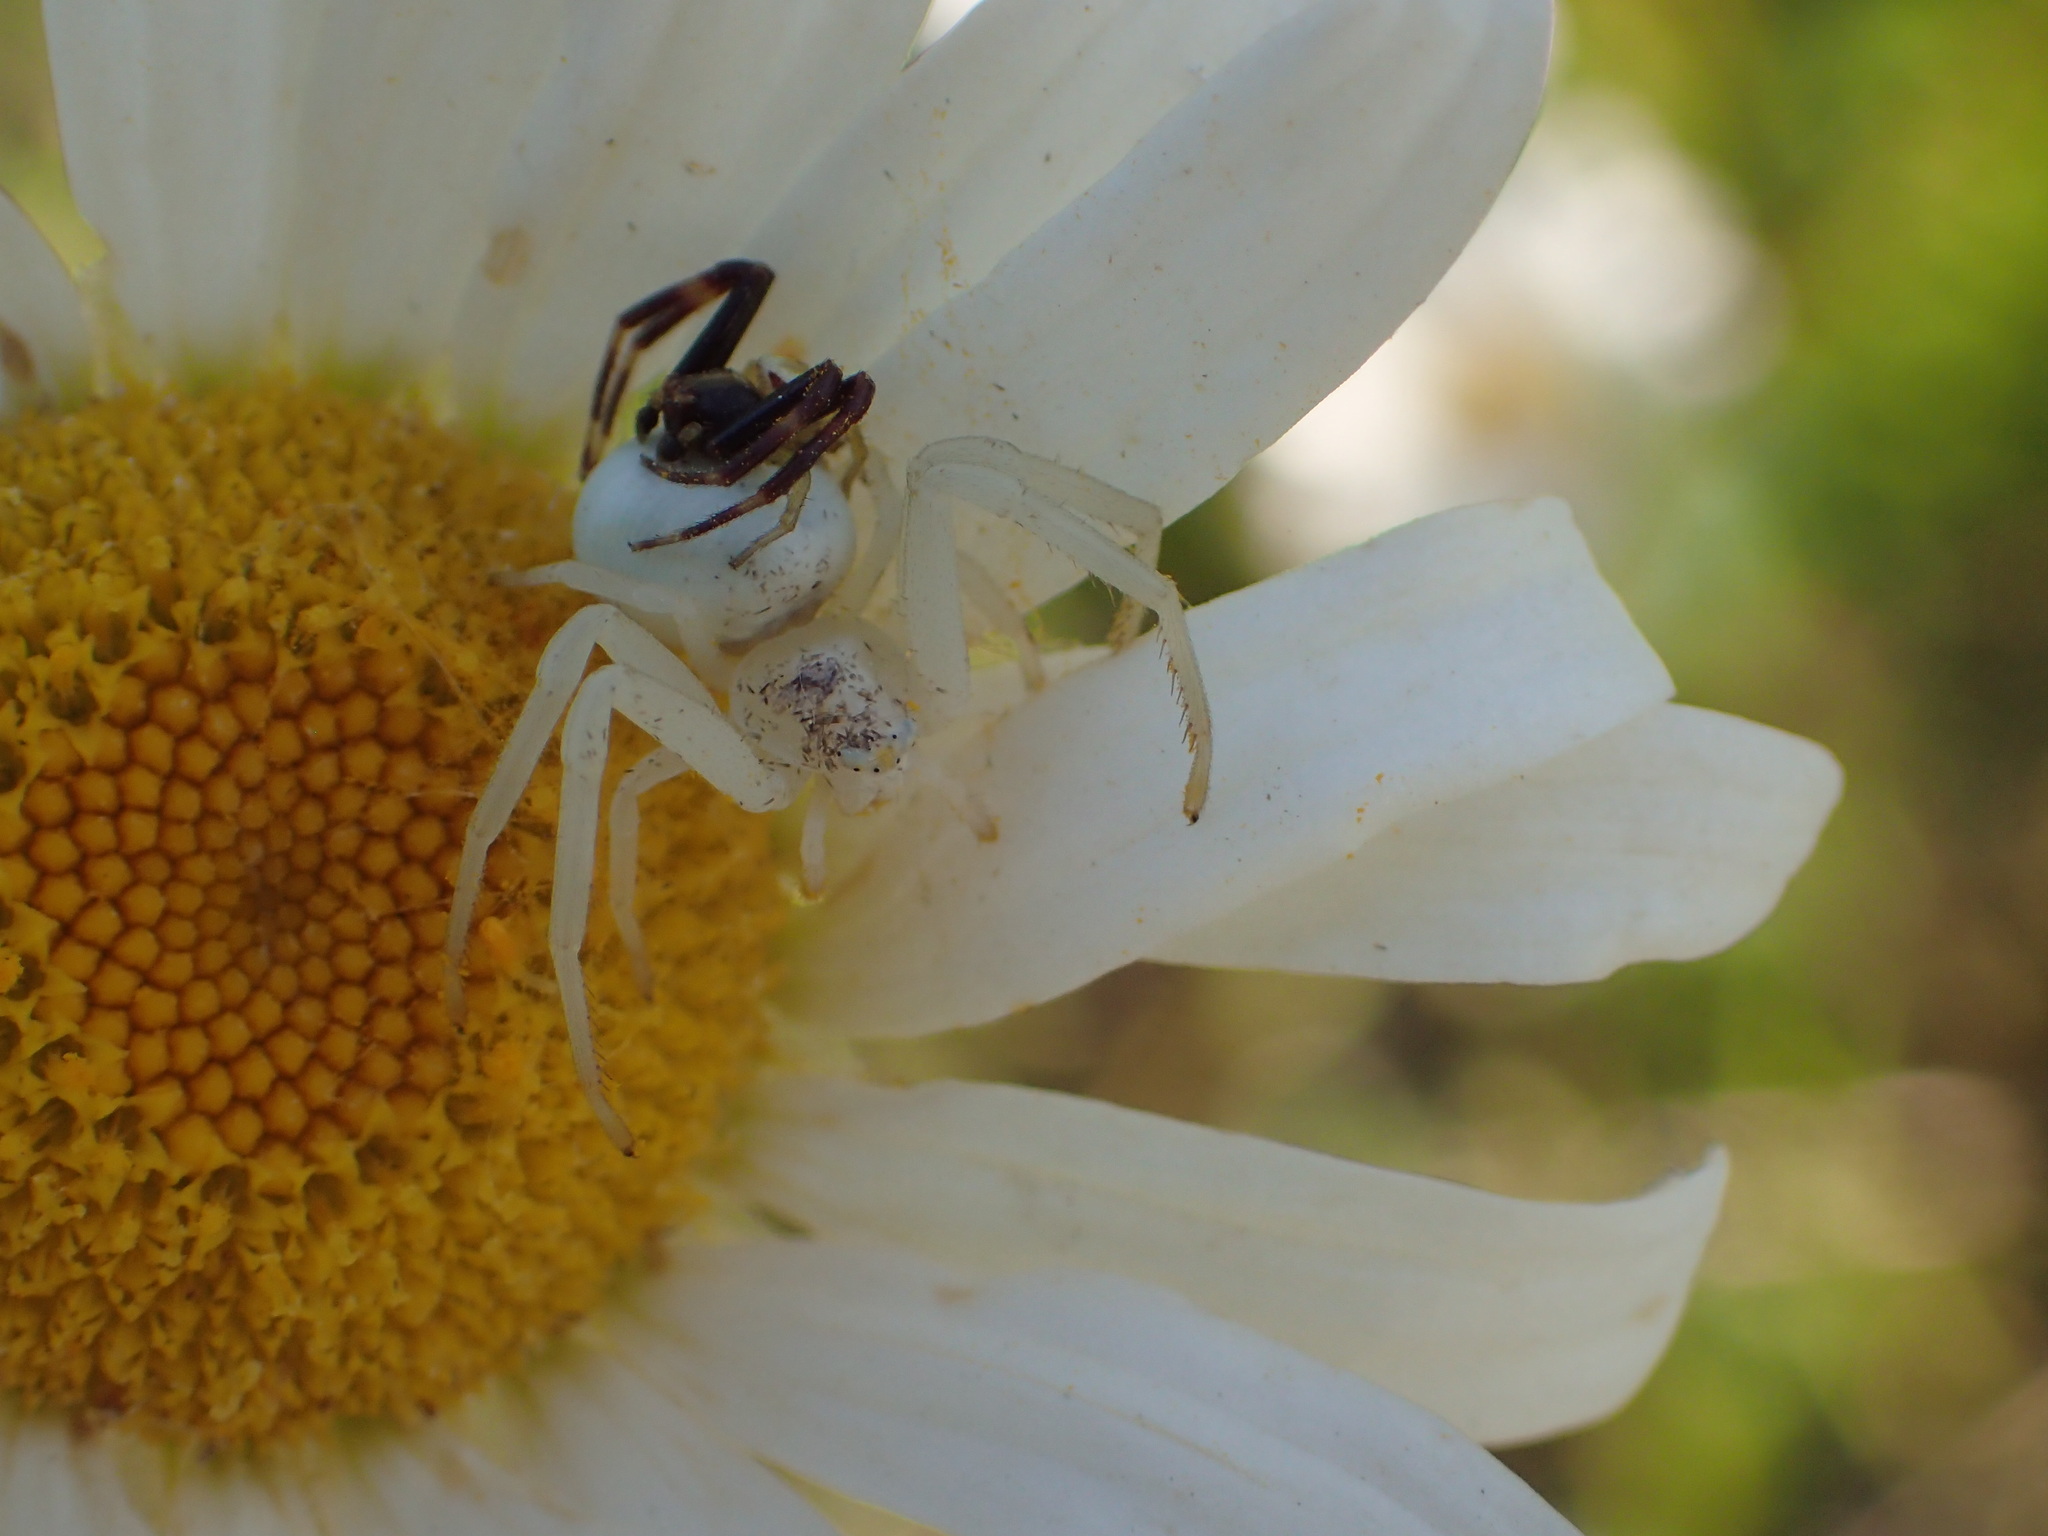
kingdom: Animalia
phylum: Arthropoda
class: Arachnida
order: Araneae
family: Thomisidae
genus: Misumena
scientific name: Misumena vatia
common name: Goldenrod crab spider
